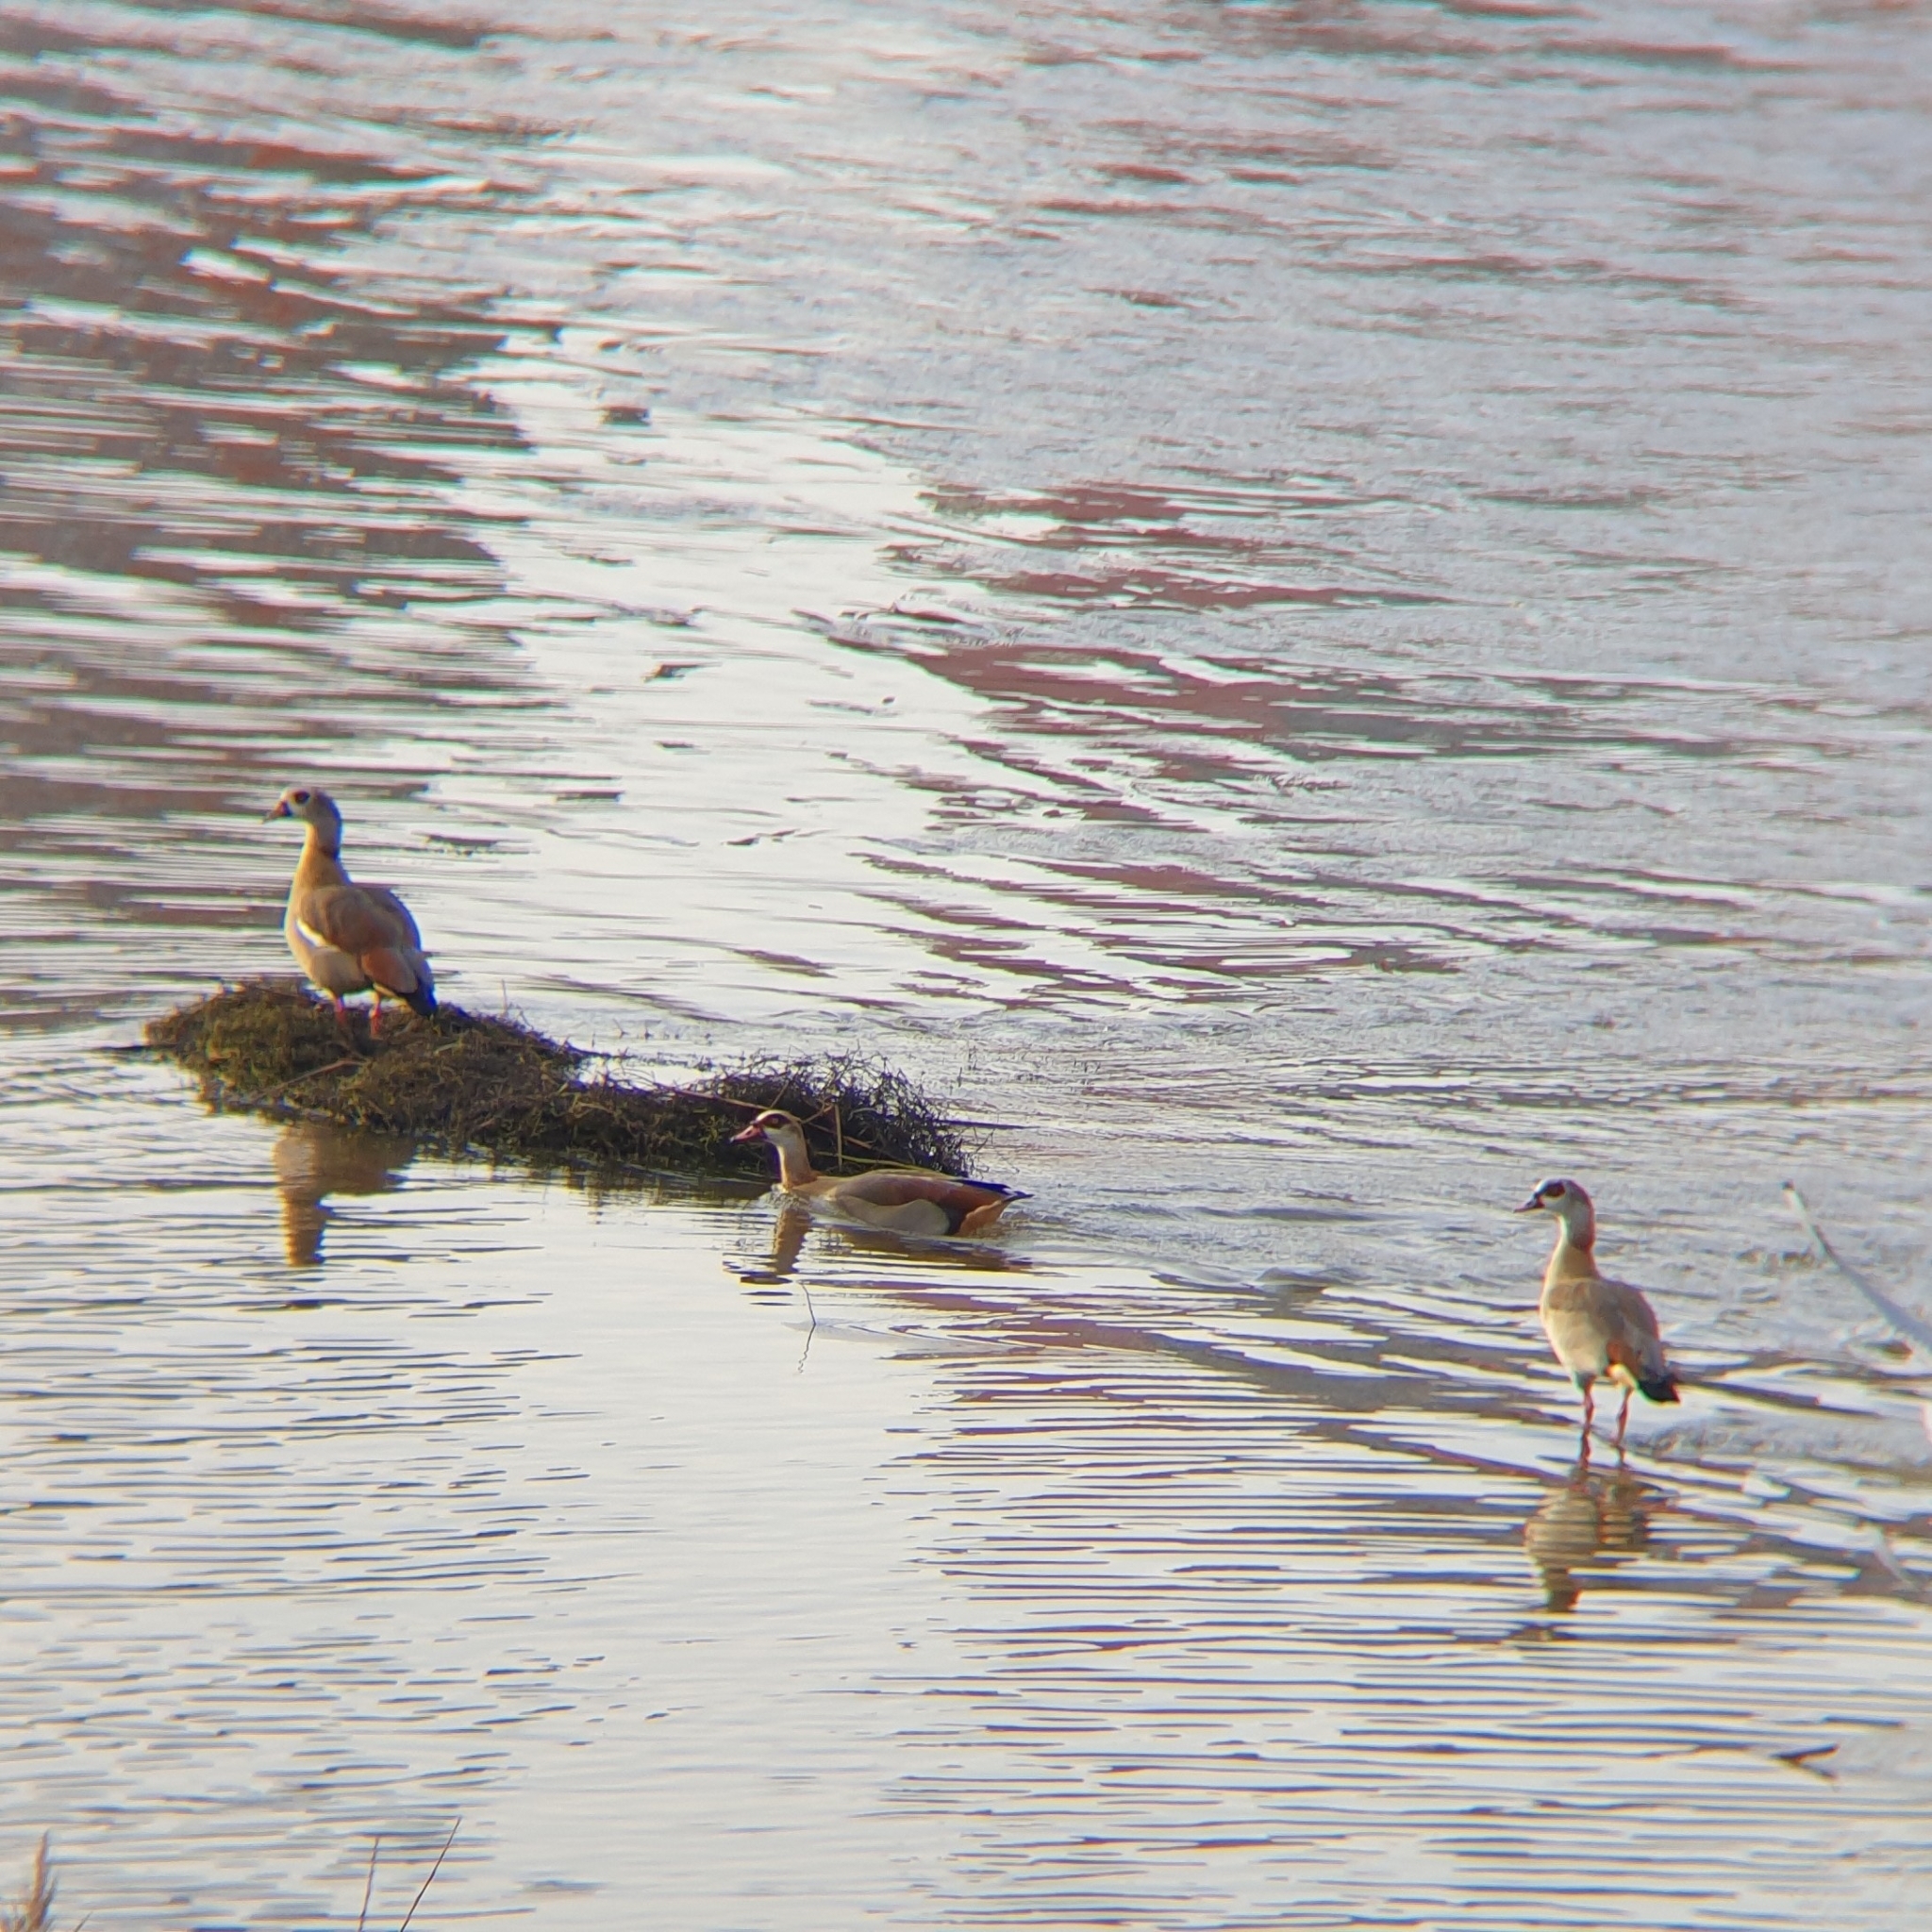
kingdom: Animalia
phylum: Chordata
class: Aves
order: Anseriformes
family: Anatidae
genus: Alopochen
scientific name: Alopochen aegyptiaca
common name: Egyptian goose
